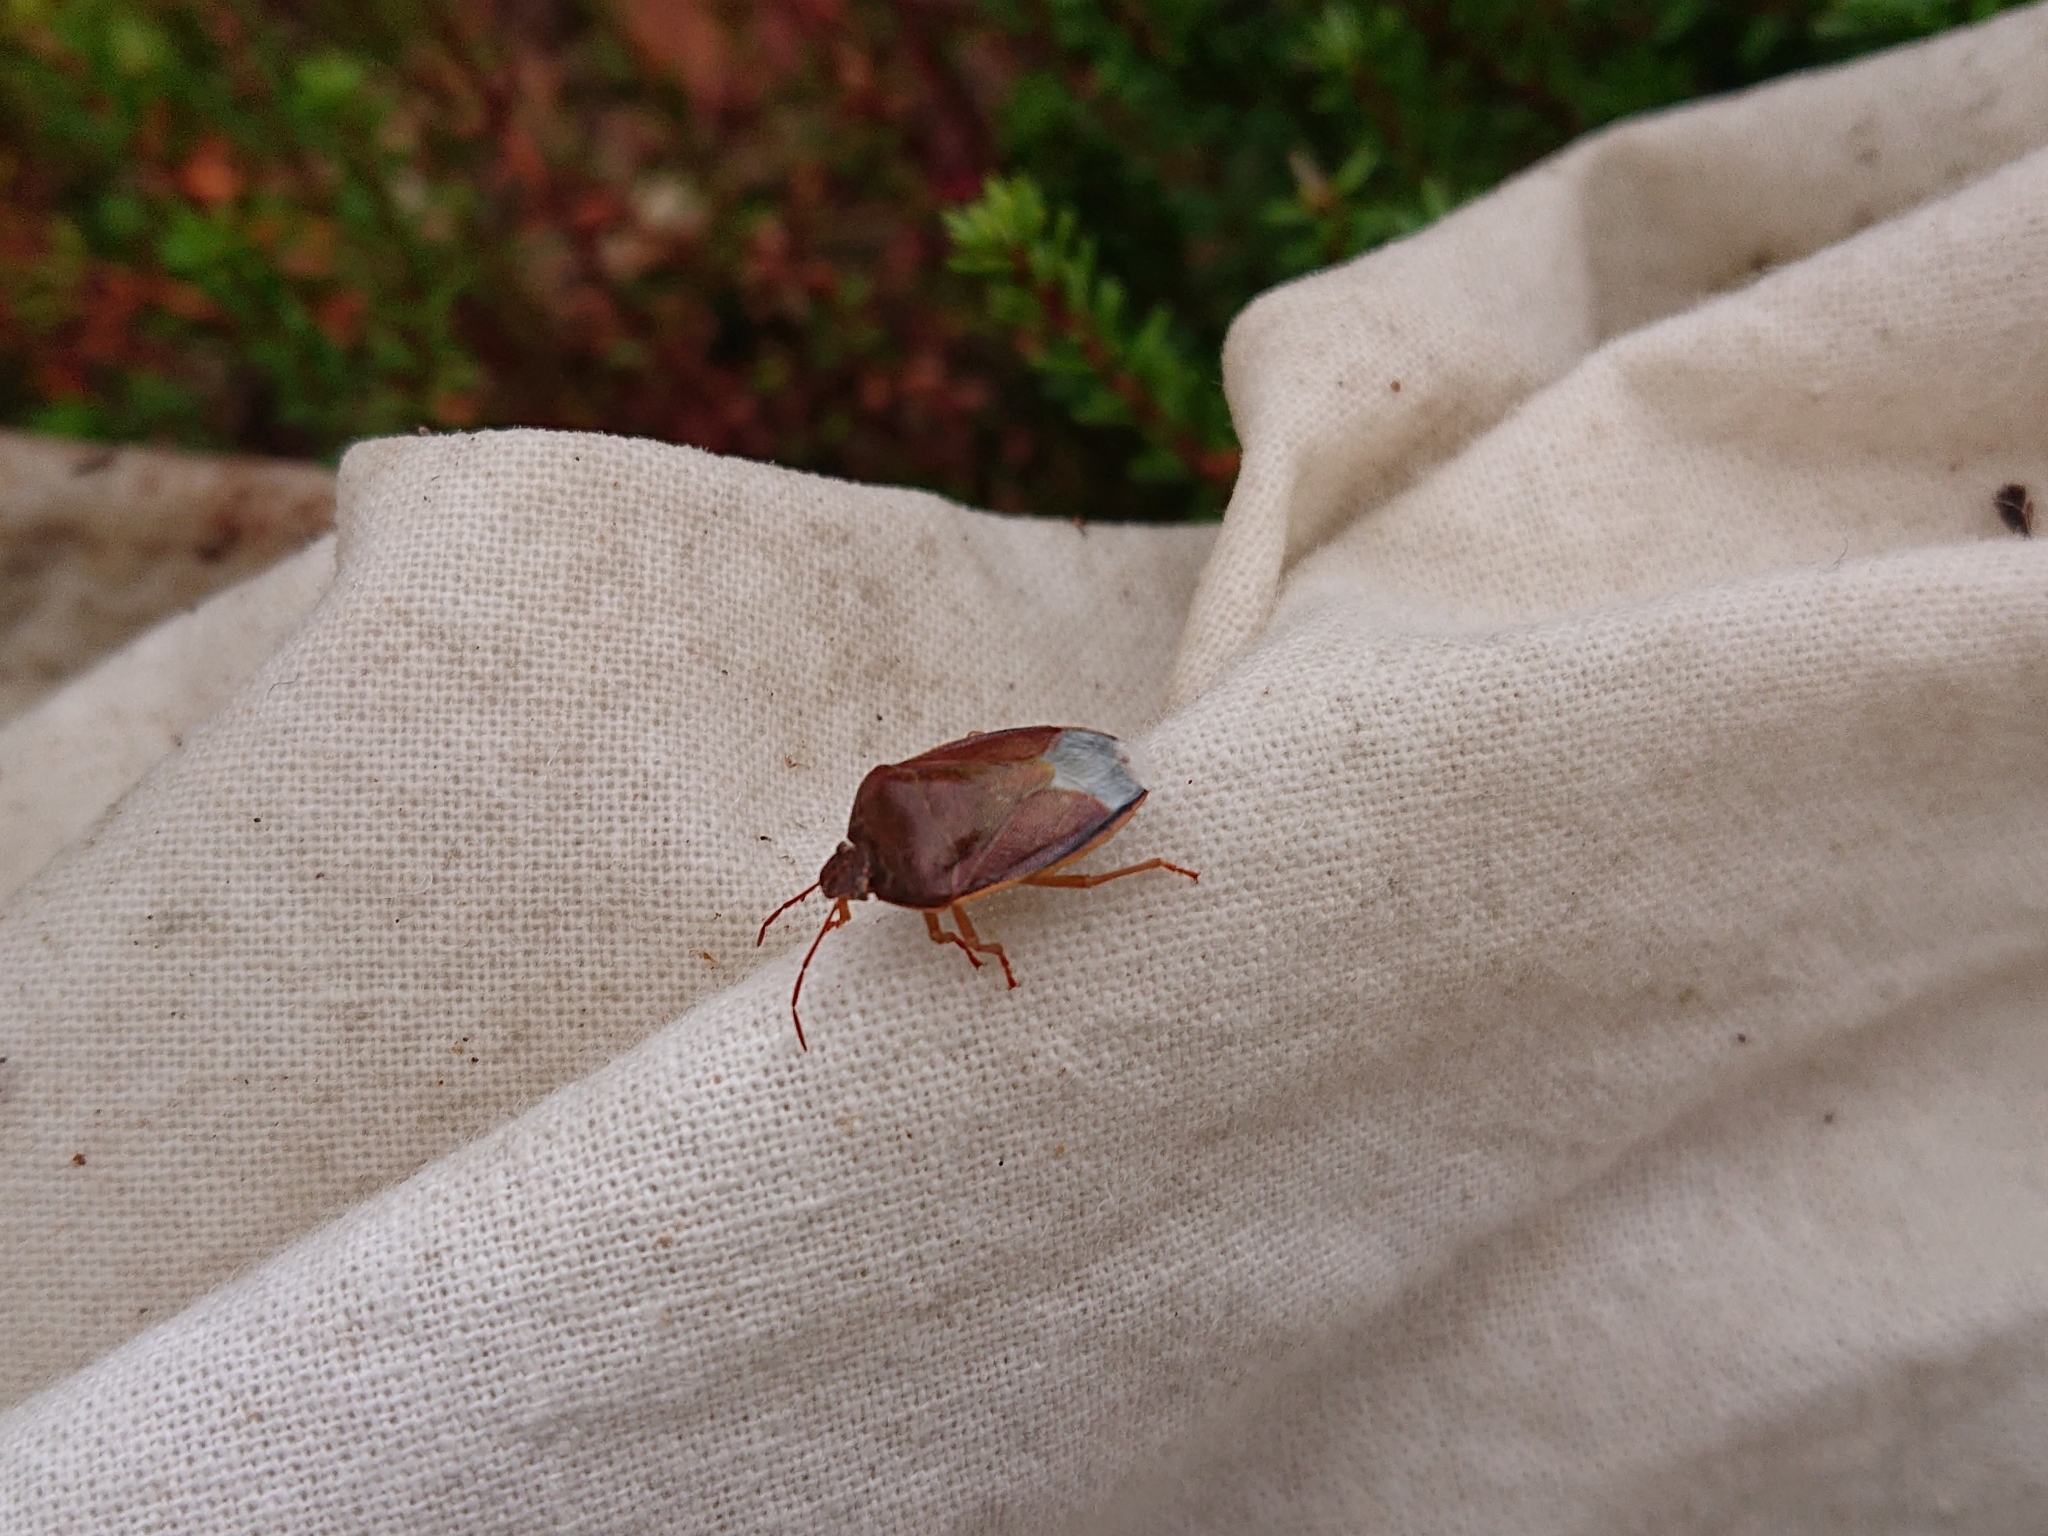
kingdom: Animalia
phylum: Arthropoda
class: Insecta
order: Hemiptera
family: Pentatomidae
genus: Piezodorus
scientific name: Piezodorus lituratus
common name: Stink bug
